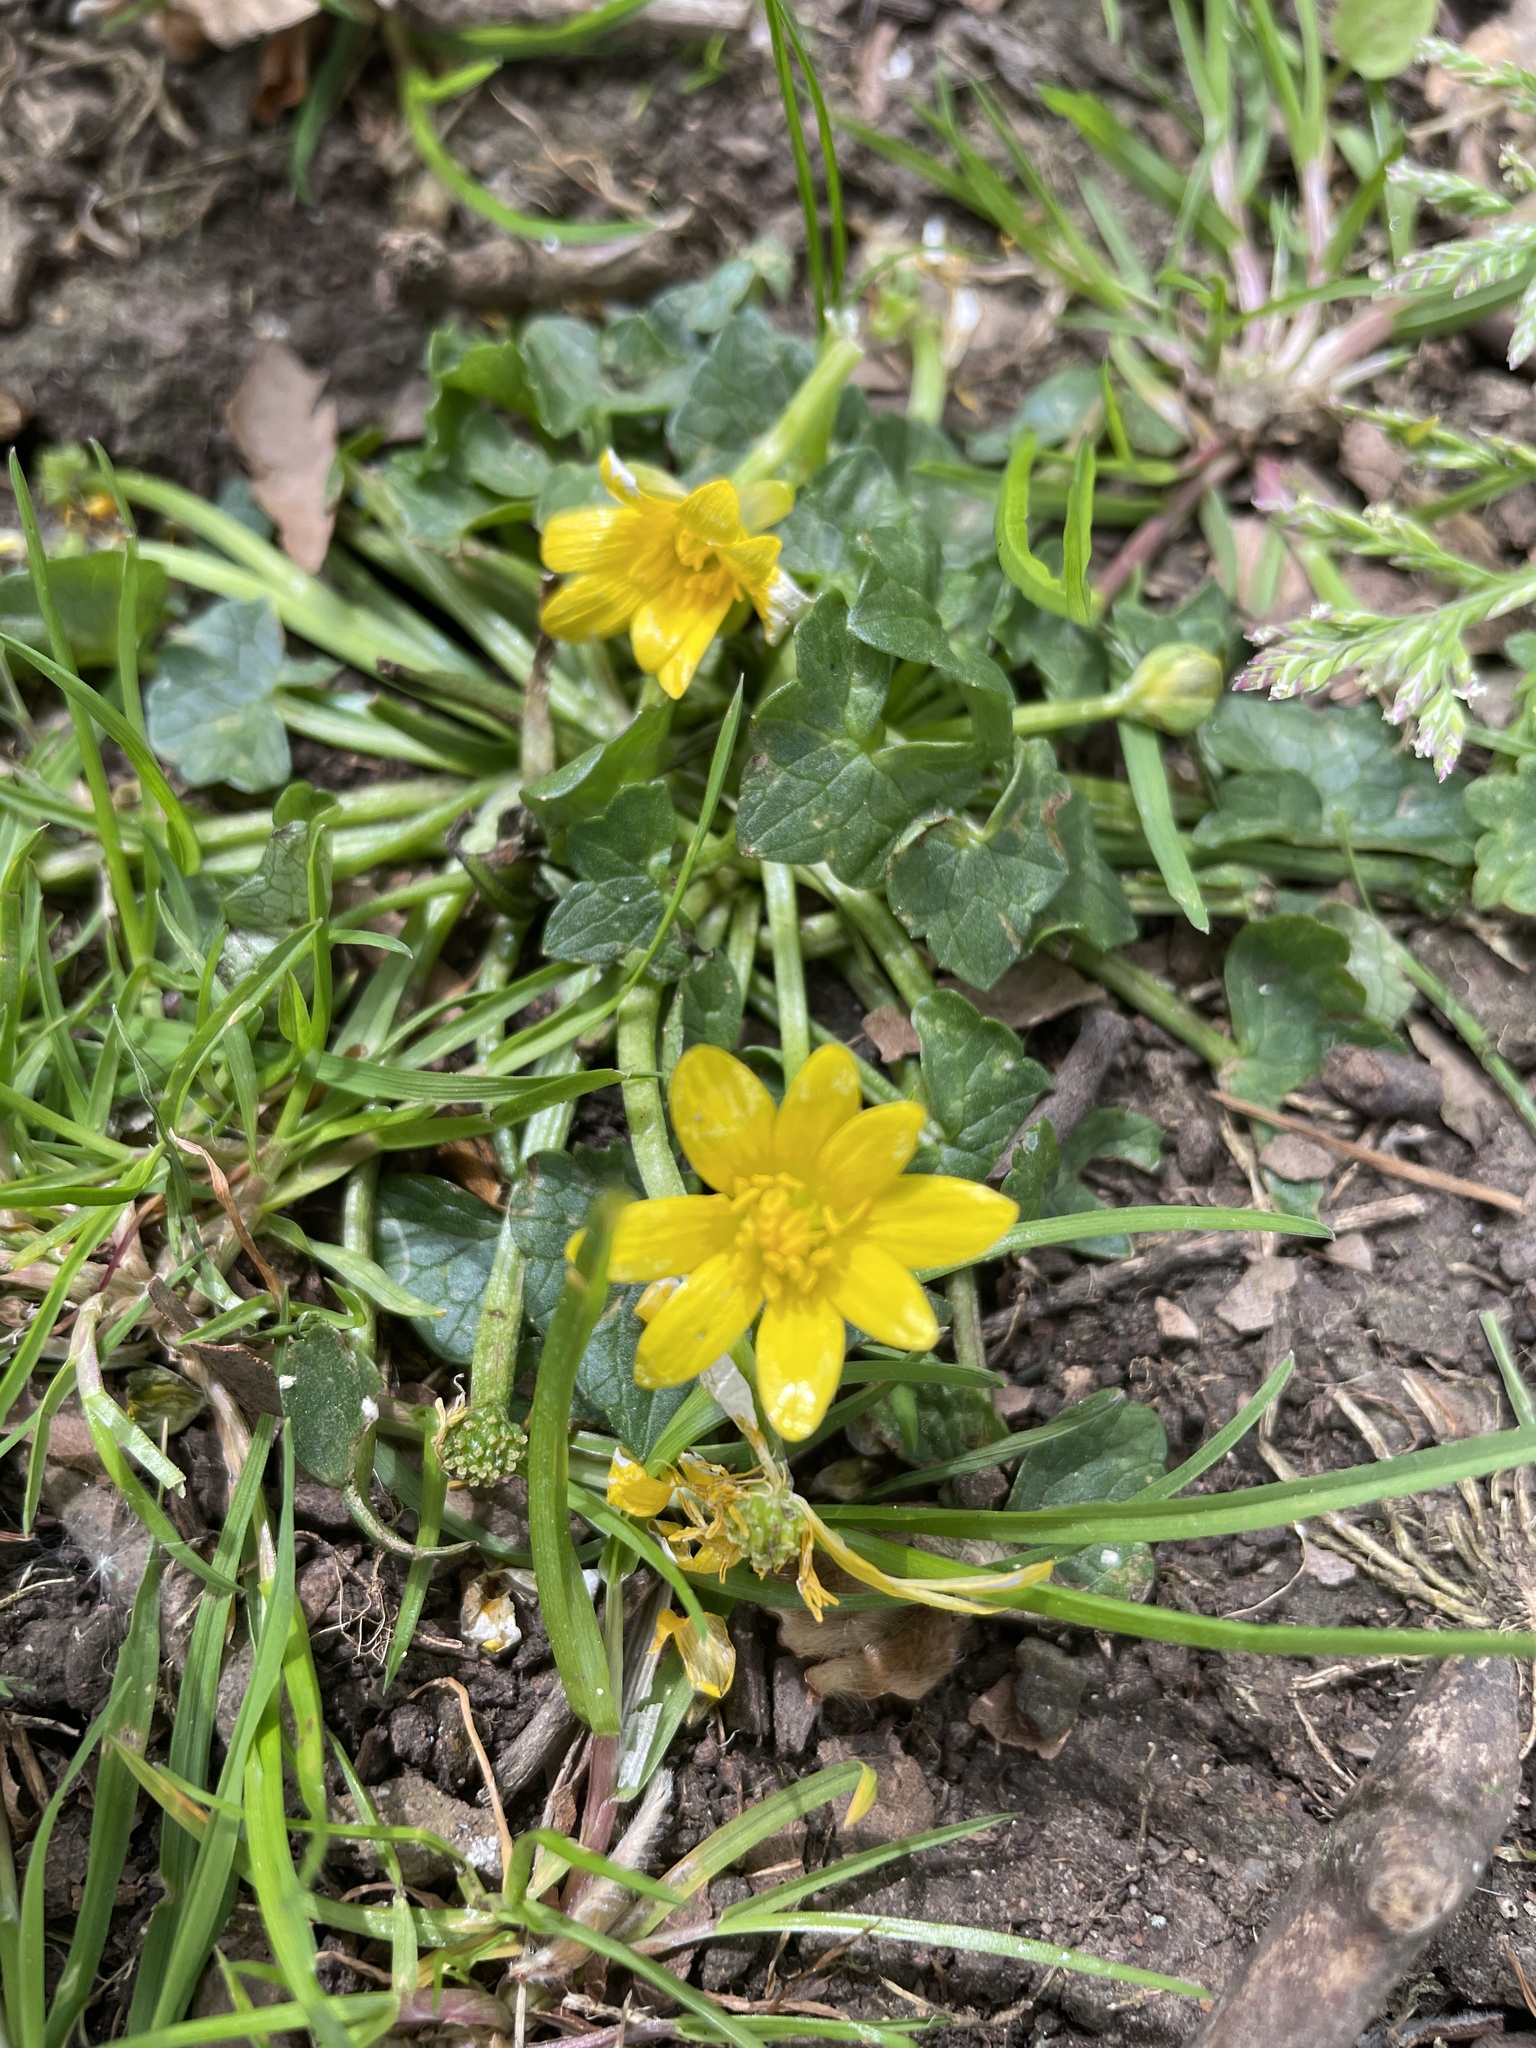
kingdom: Plantae
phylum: Tracheophyta
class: Magnoliopsida
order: Ranunculales
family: Ranunculaceae
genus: Ficaria
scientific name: Ficaria verna
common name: Lesser celandine
